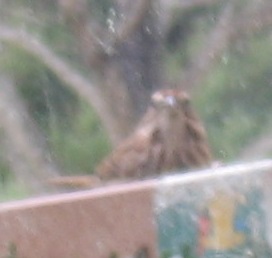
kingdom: Animalia
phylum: Chordata
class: Aves
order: Passeriformes
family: Passerellidae
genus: Melospiza
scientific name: Melospiza melodia
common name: Song sparrow
